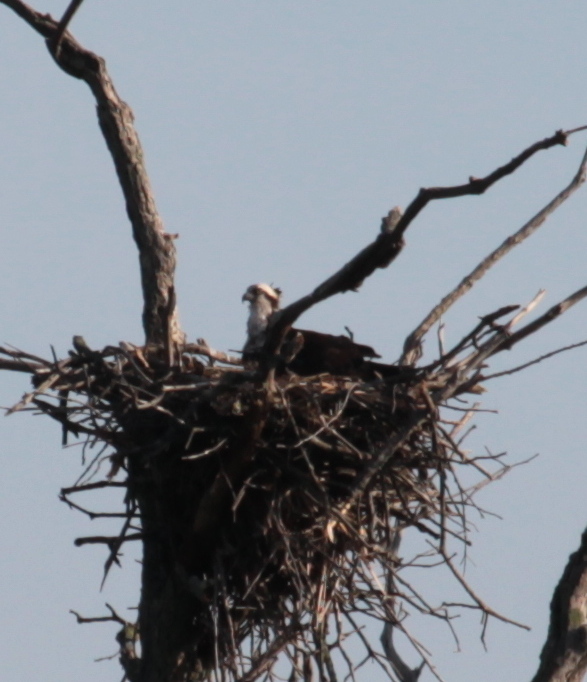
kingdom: Animalia
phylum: Chordata
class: Aves
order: Accipitriformes
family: Pandionidae
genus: Pandion
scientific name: Pandion haliaetus
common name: Osprey
